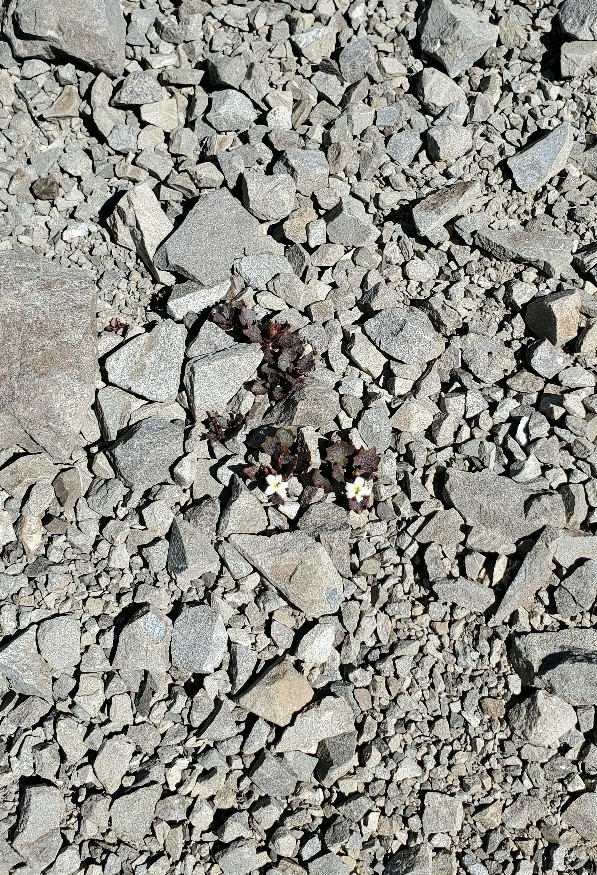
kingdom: Plantae
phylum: Tracheophyta
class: Magnoliopsida
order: Asterales
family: Campanulaceae
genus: Lobelia
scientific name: Lobelia roughii
